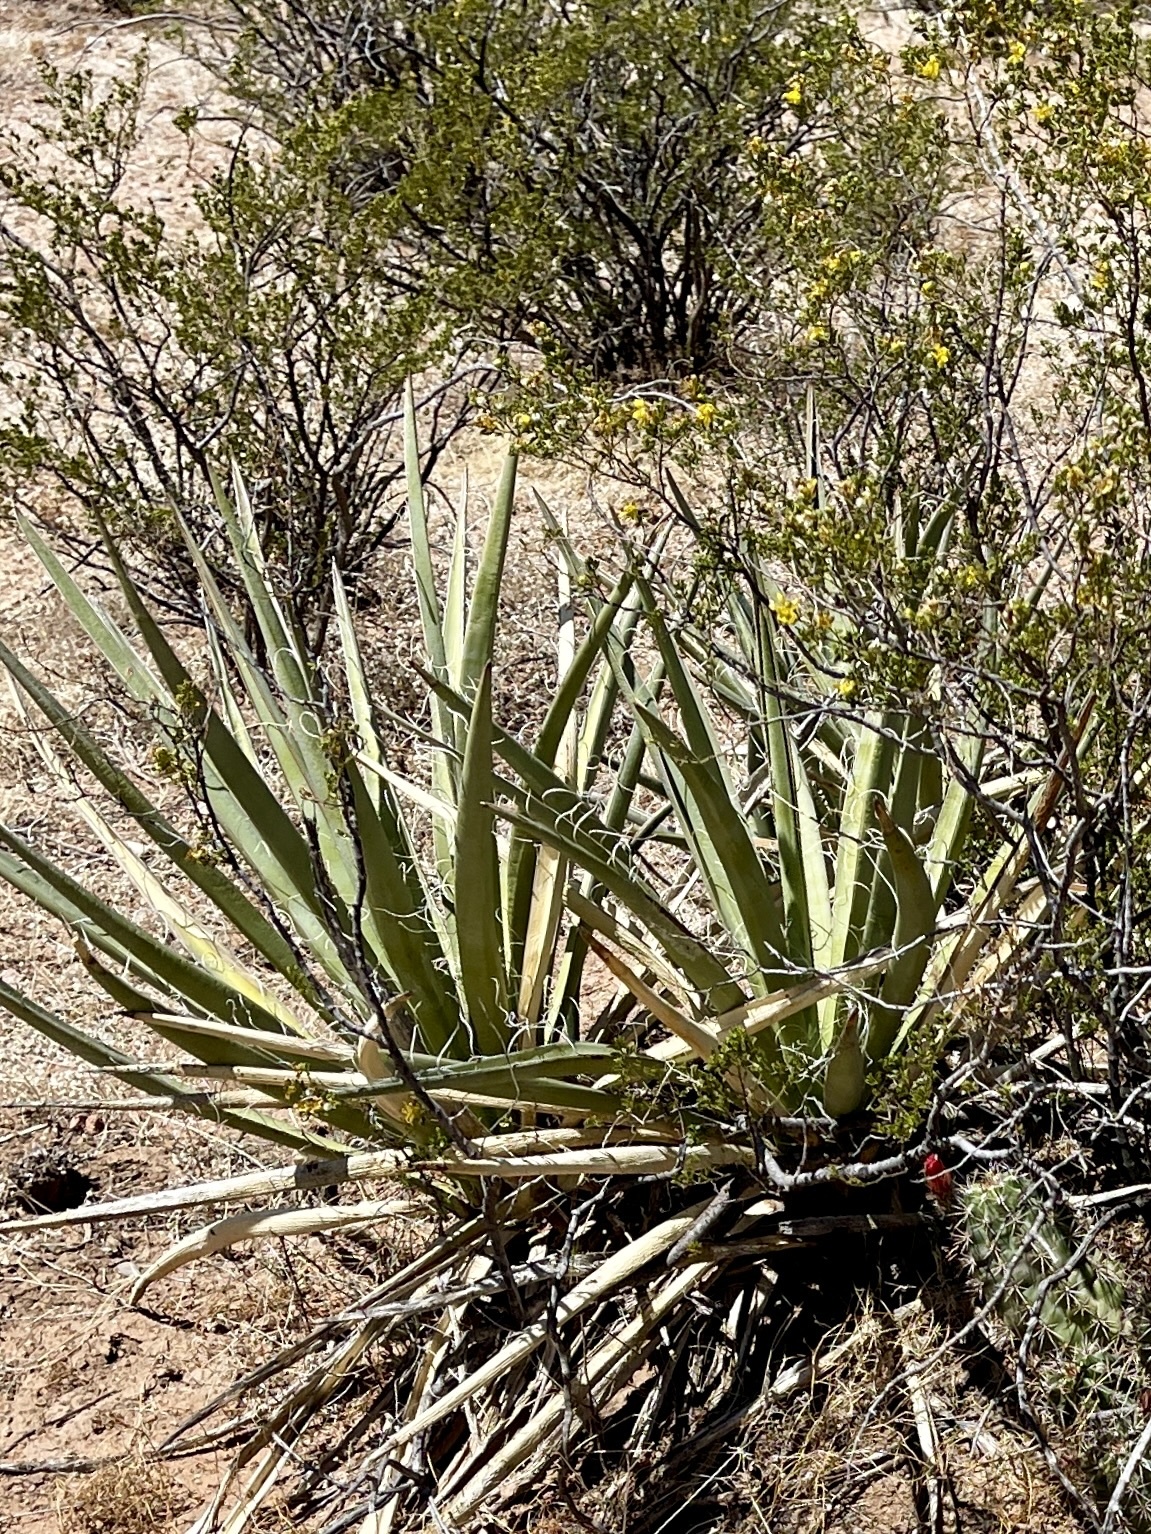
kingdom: Plantae
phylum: Tracheophyta
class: Liliopsida
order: Asparagales
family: Asparagaceae
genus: Yucca
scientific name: Yucca baccata
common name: Banana yucca
